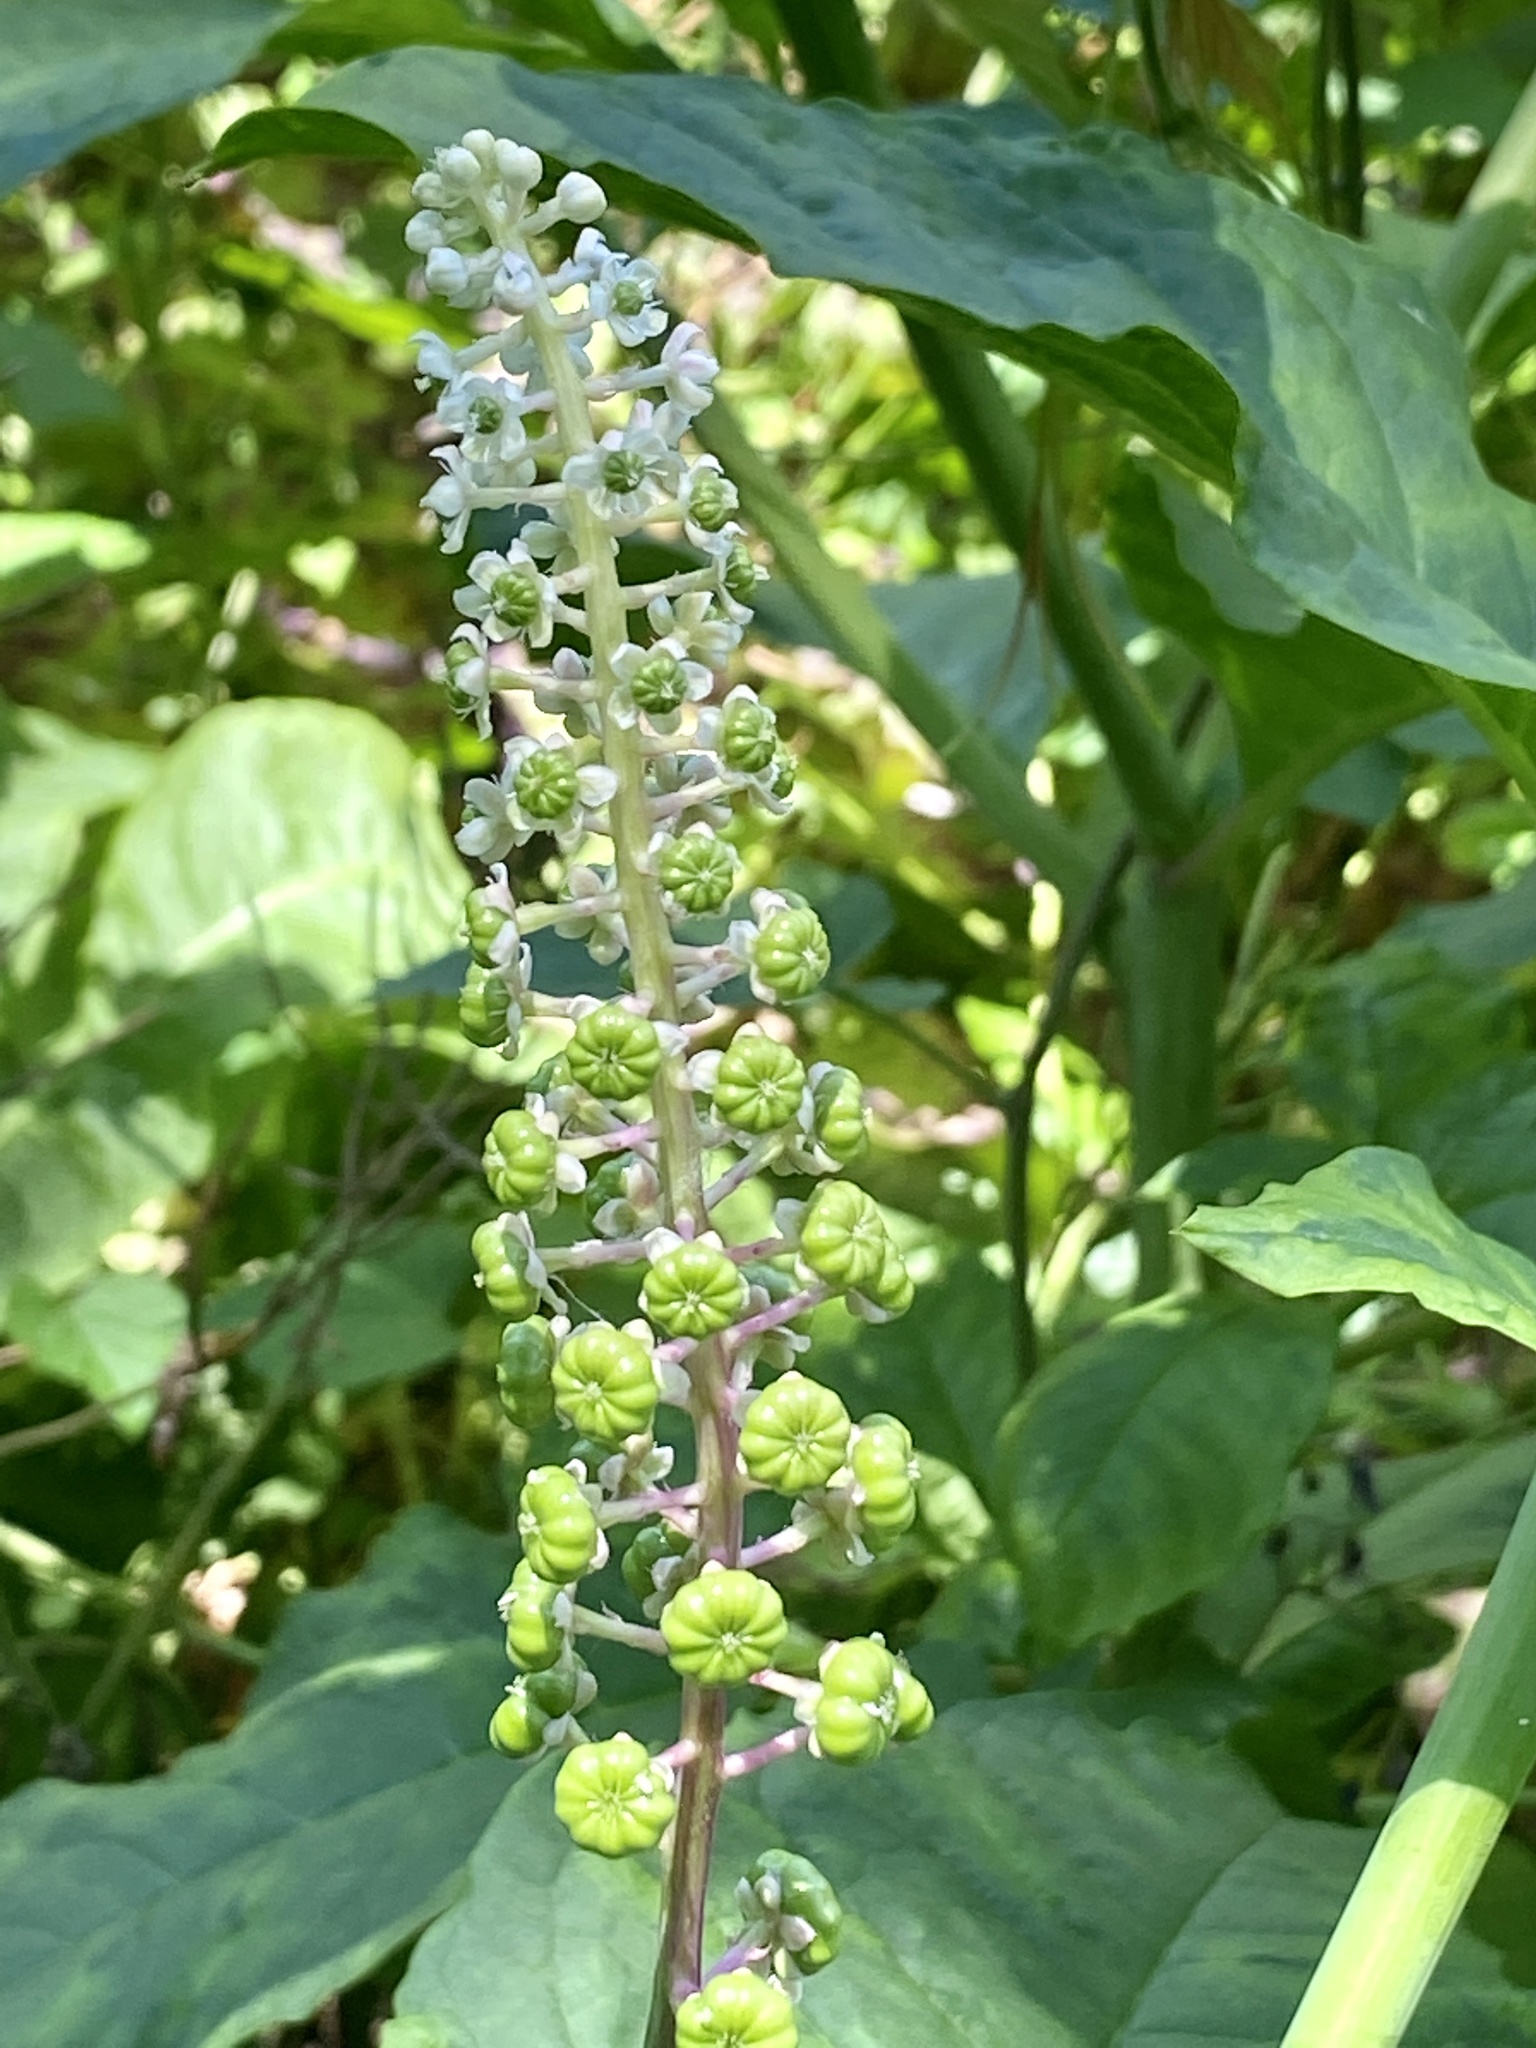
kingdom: Plantae
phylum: Tracheophyta
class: Magnoliopsida
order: Caryophyllales
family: Phytolaccaceae
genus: Phytolacca
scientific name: Phytolacca americana
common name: American pokeweed
